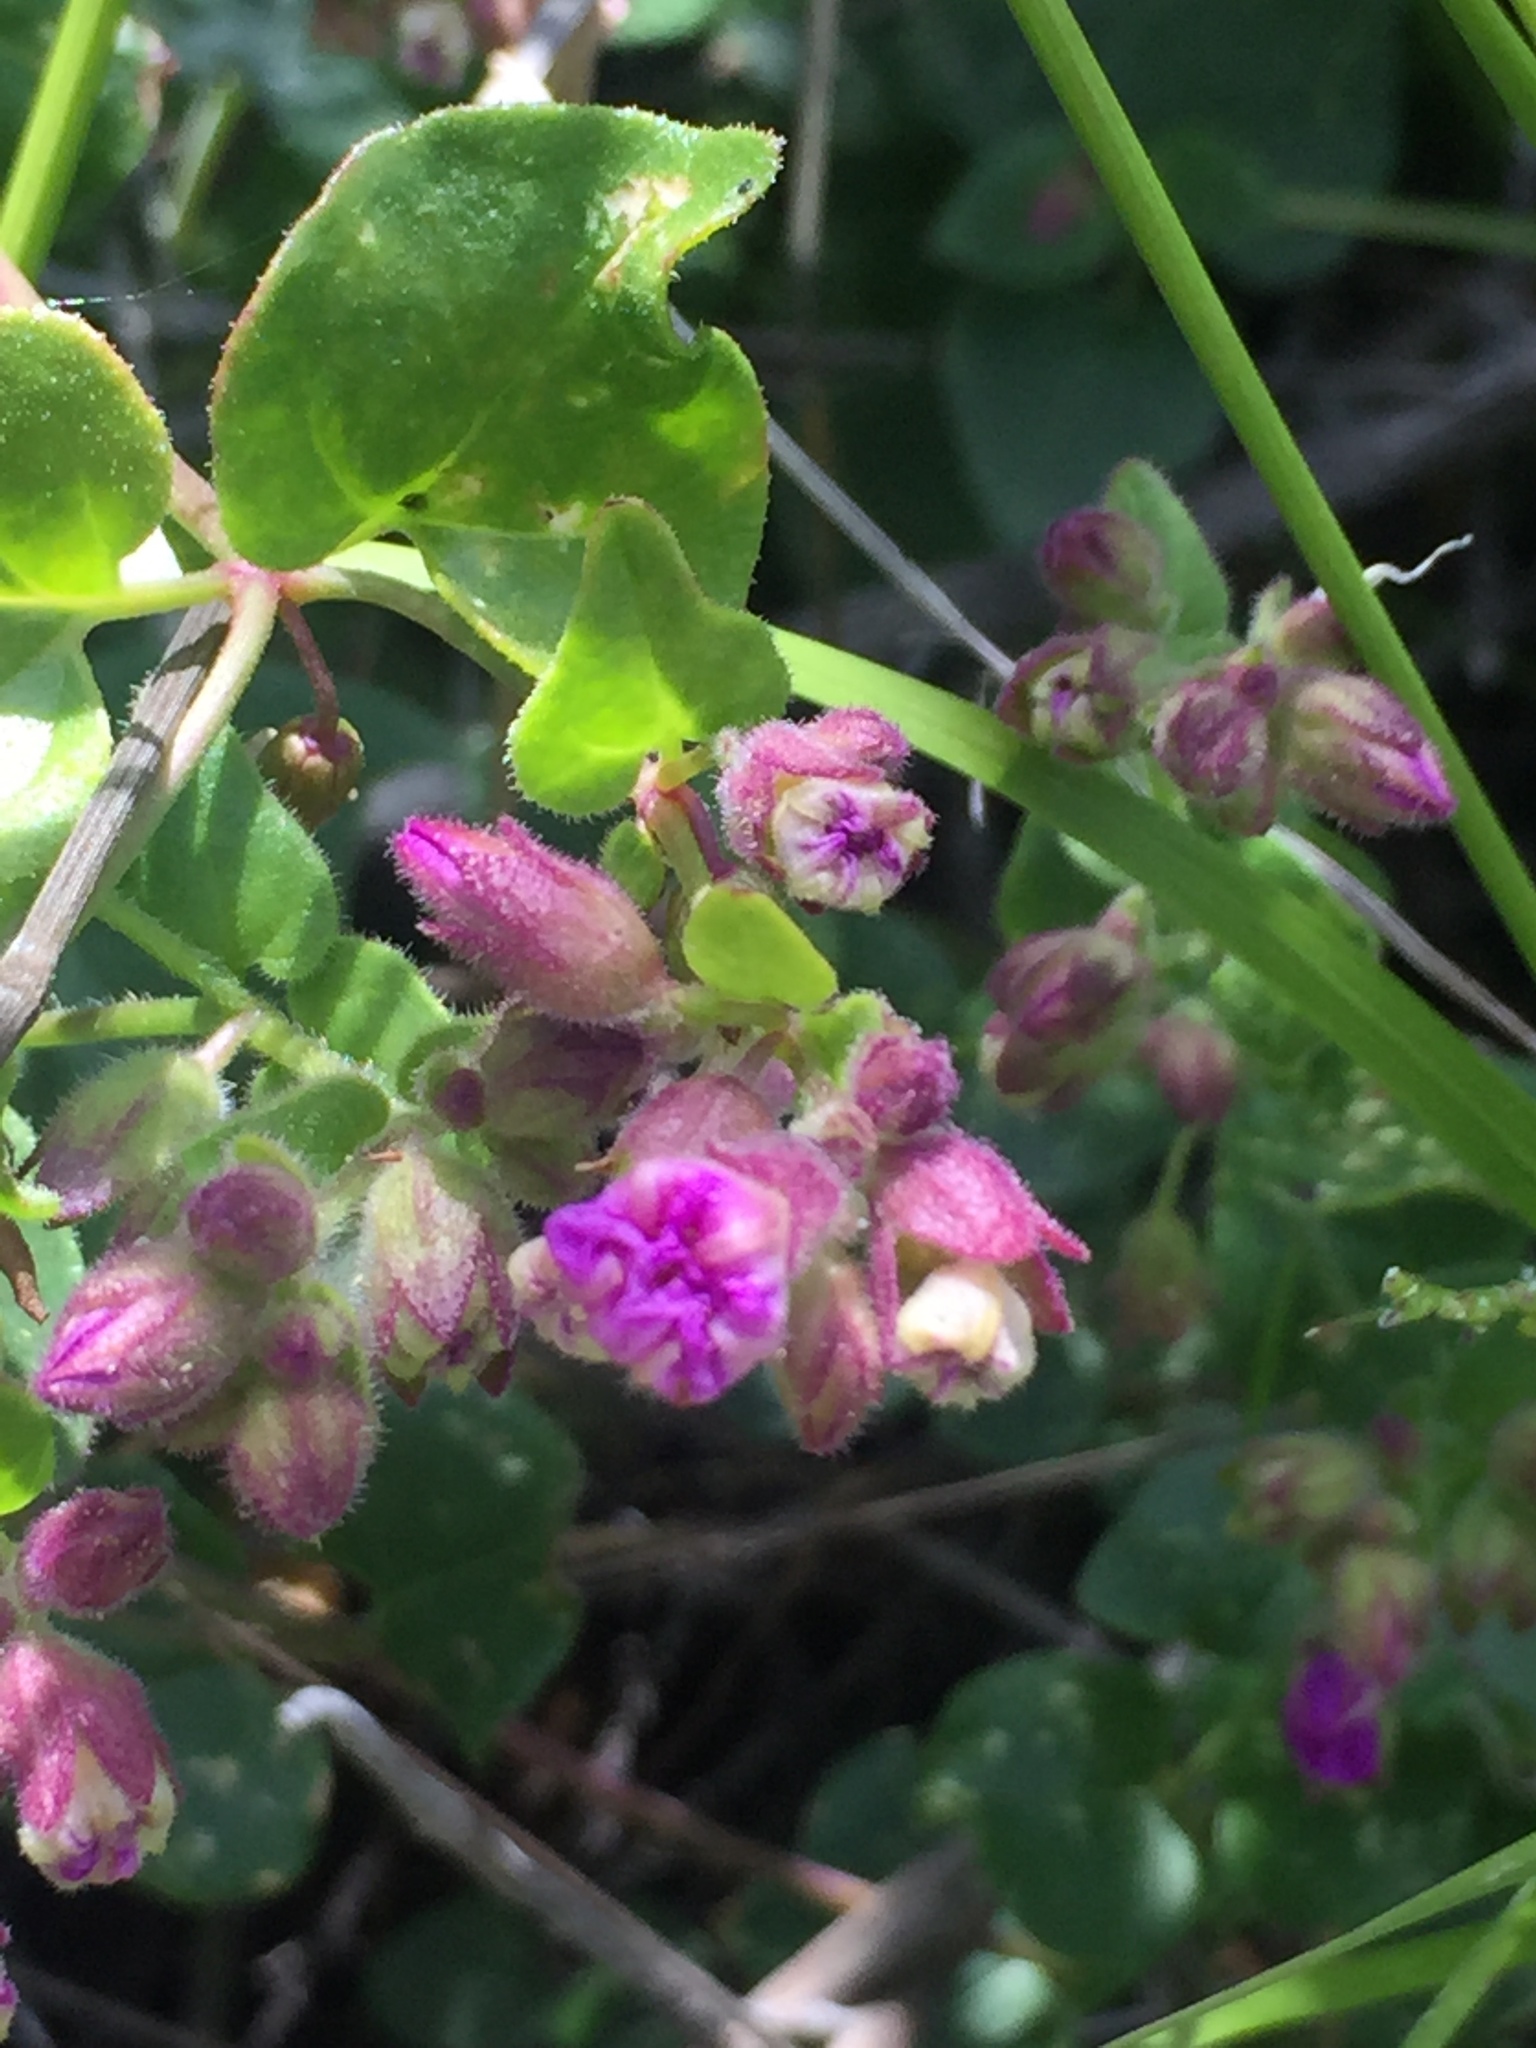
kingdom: Plantae
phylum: Tracheophyta
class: Magnoliopsida
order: Caryophyllales
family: Nyctaginaceae
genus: Mirabilis
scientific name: Mirabilis laevis
